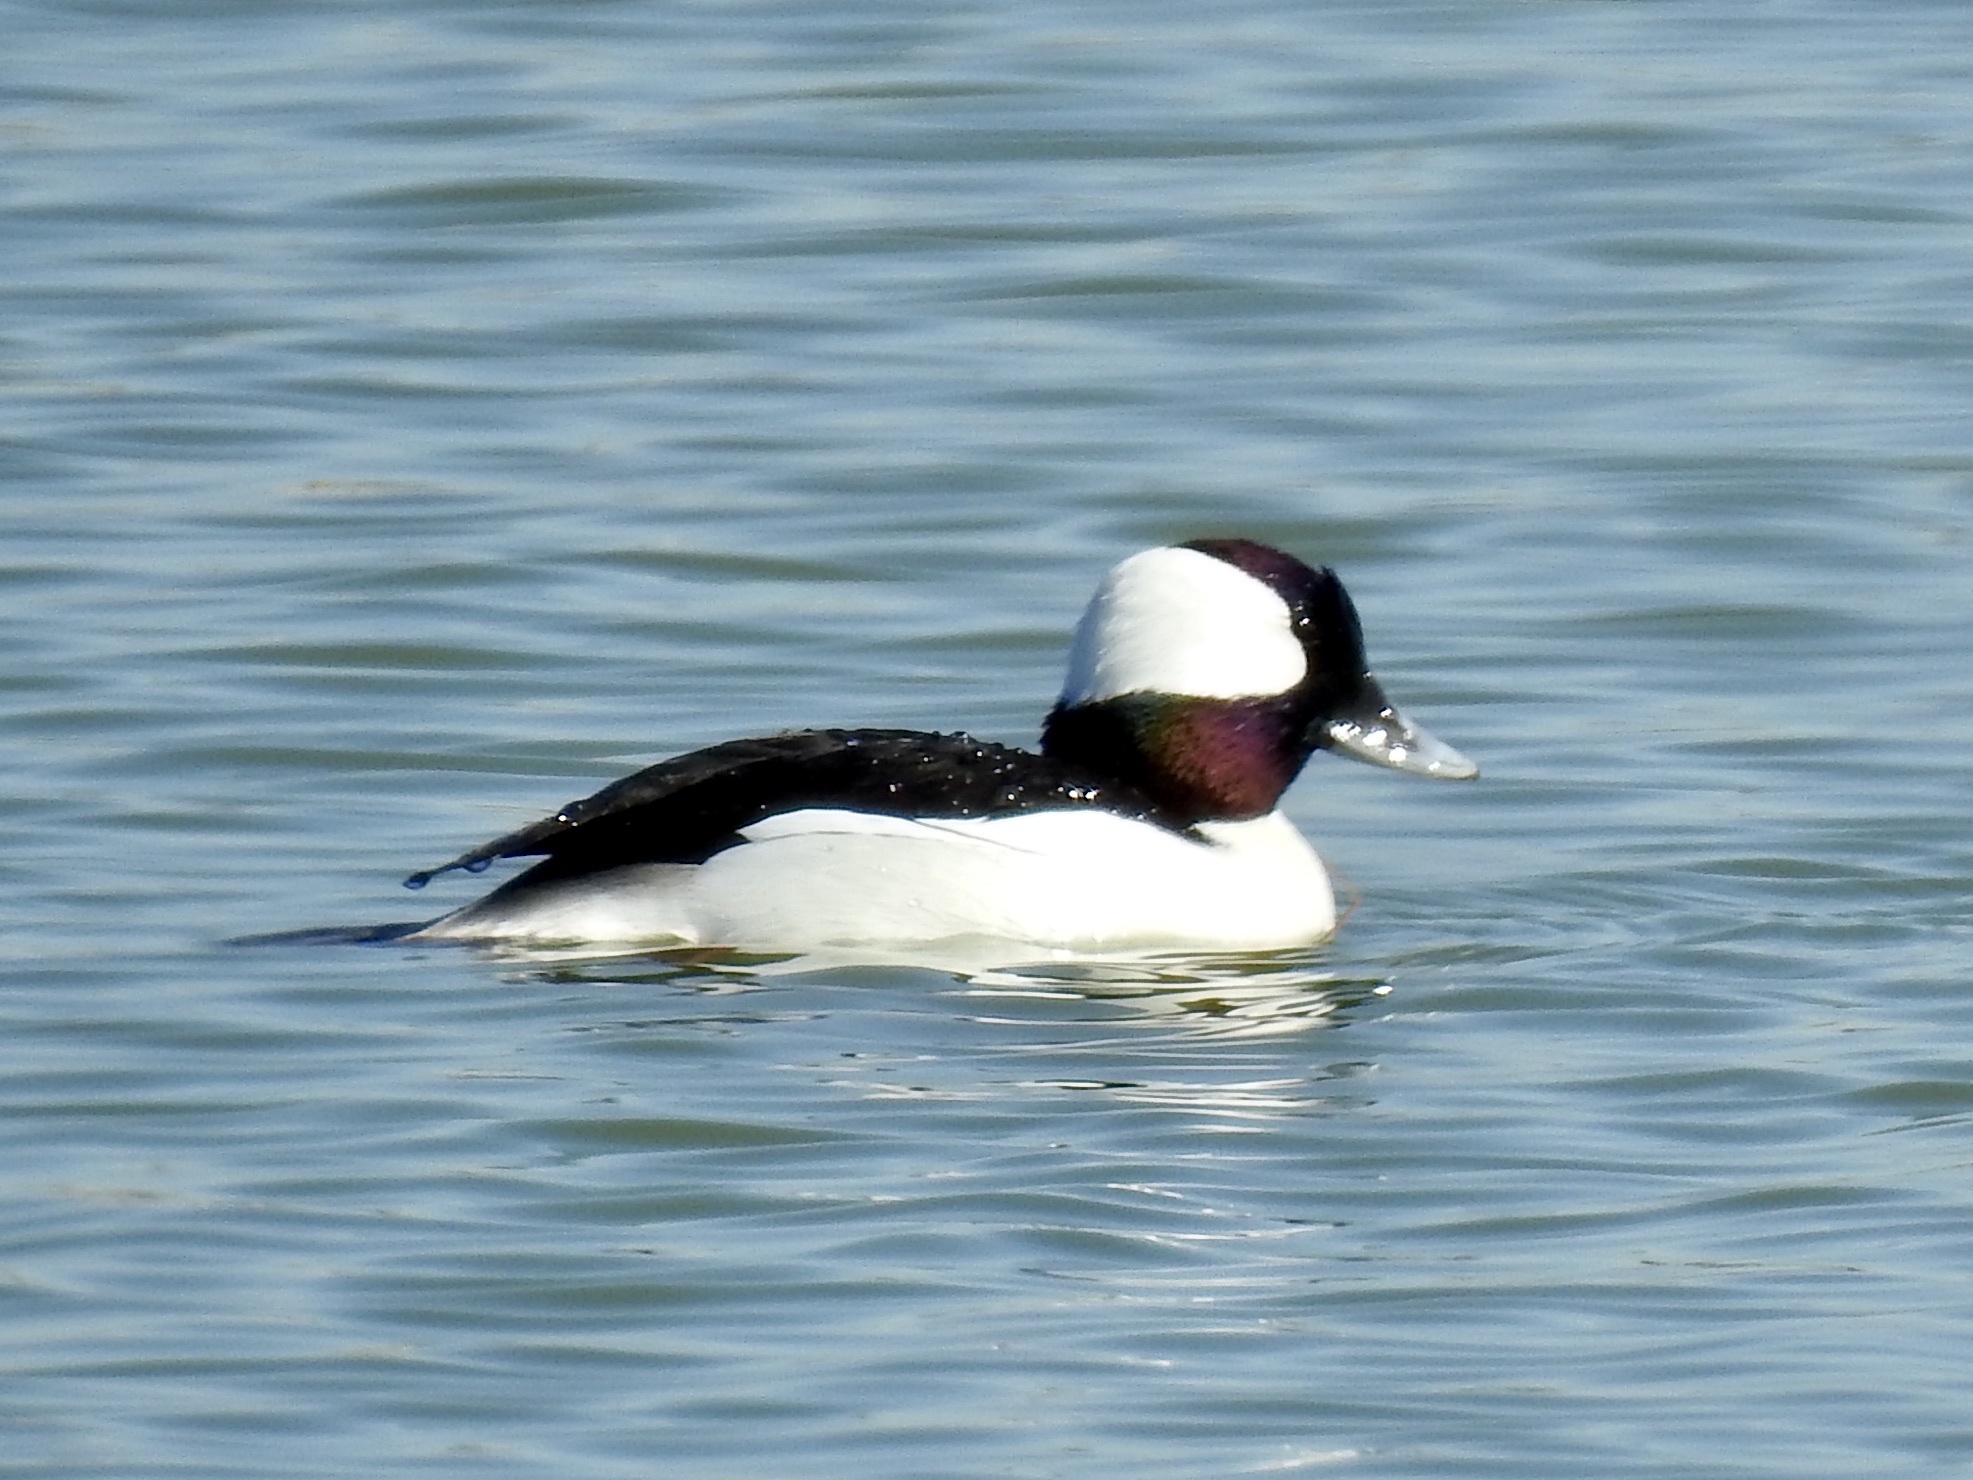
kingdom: Animalia
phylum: Chordata
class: Aves
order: Anseriformes
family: Anatidae
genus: Bucephala
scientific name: Bucephala albeola
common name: Bufflehead
